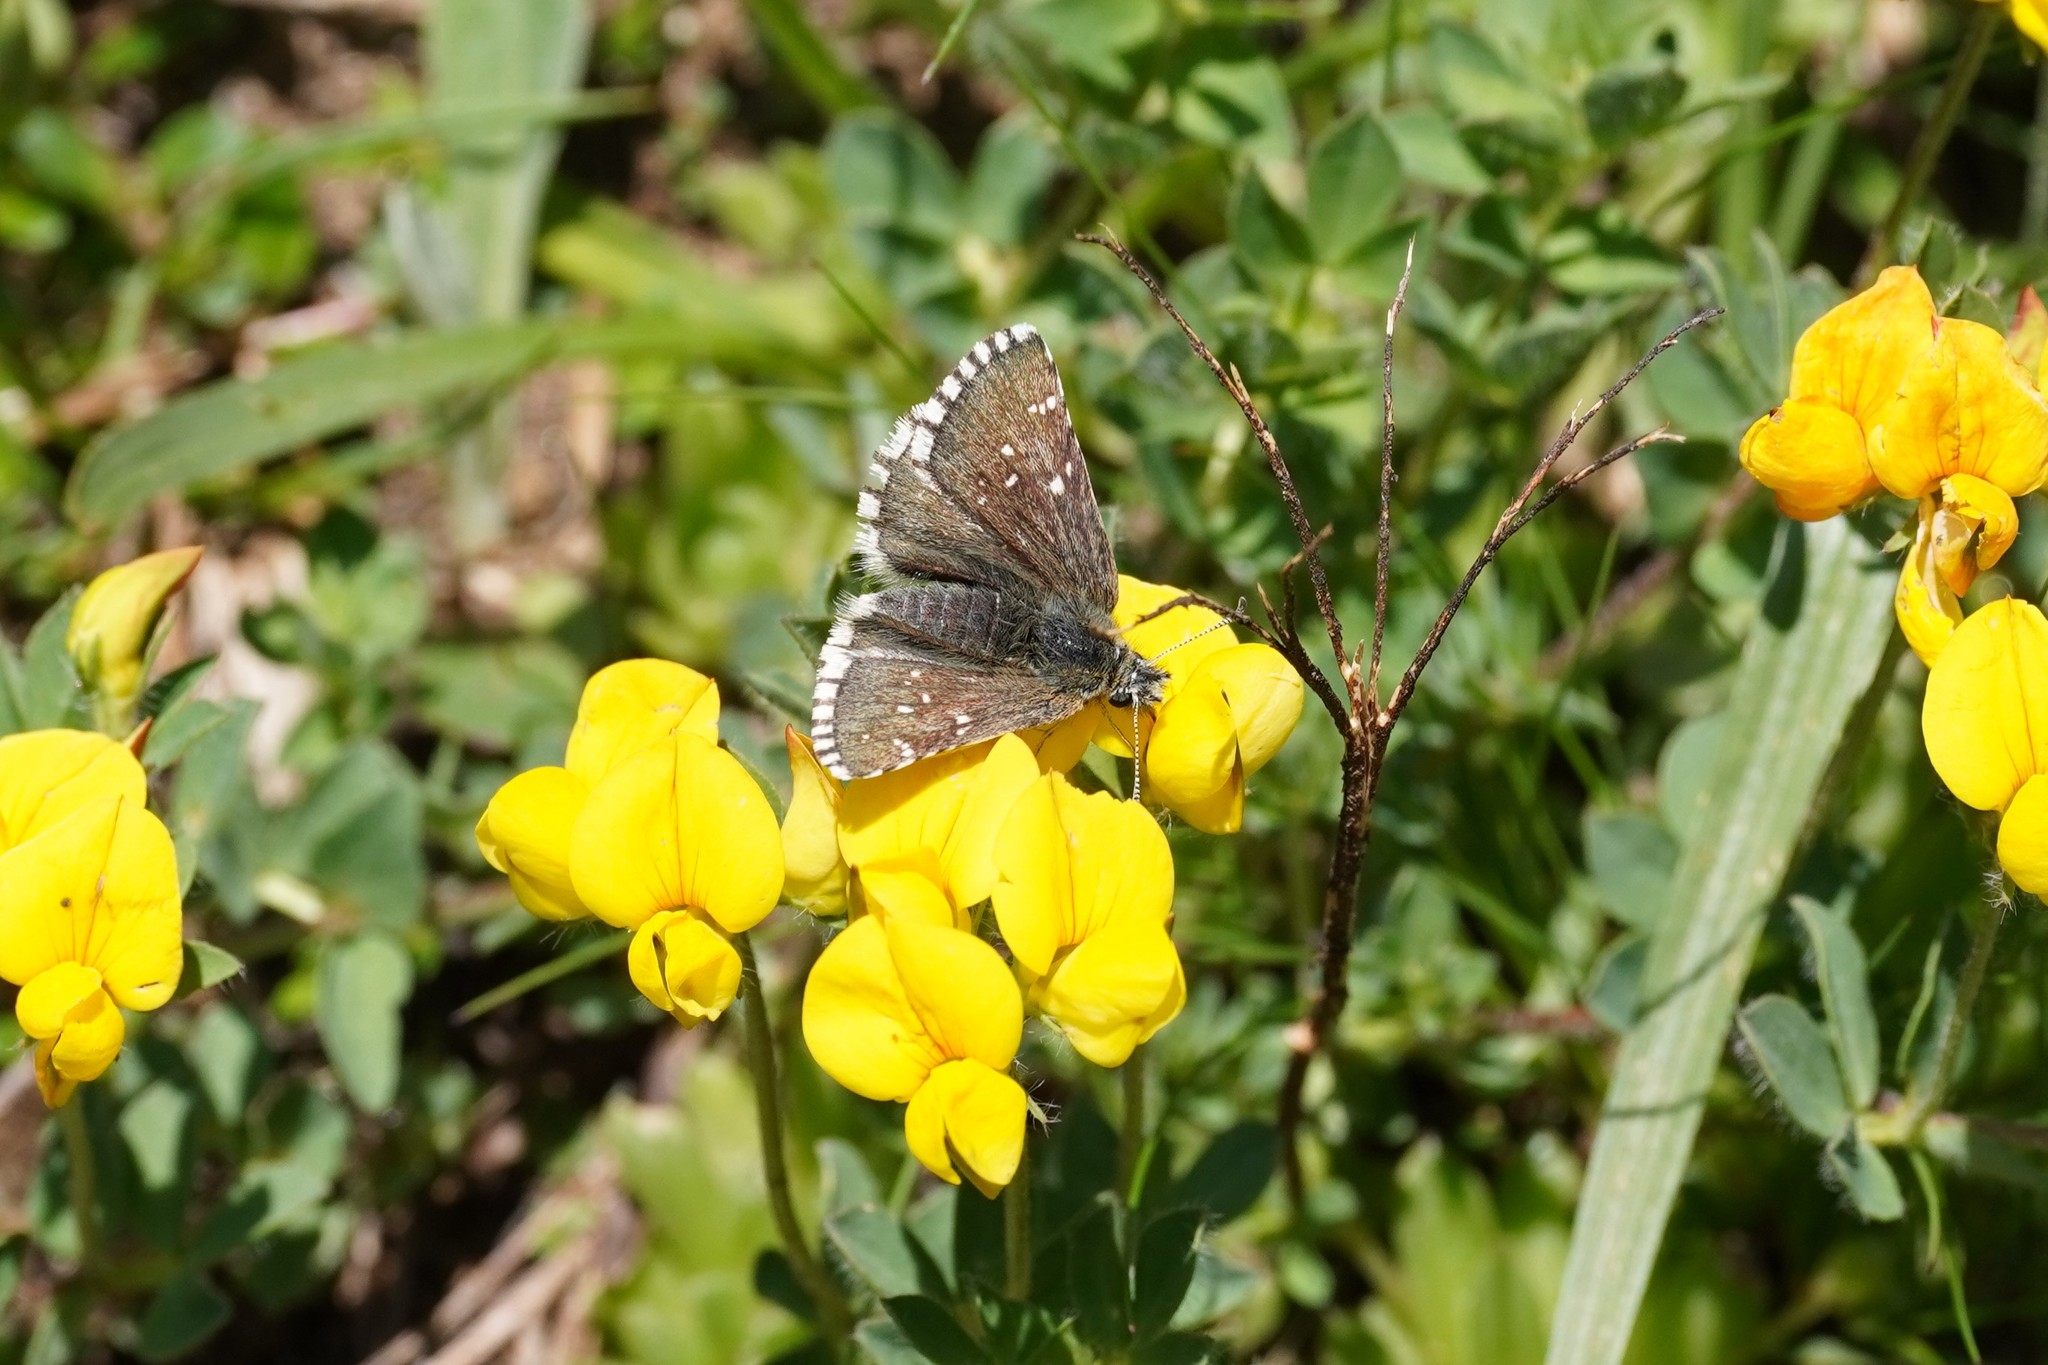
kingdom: Animalia
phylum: Arthropoda
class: Insecta
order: Lepidoptera
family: Hesperiidae
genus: Pyrgus
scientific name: Pyrgus cacaliae
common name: Dusky grizzled skipper
